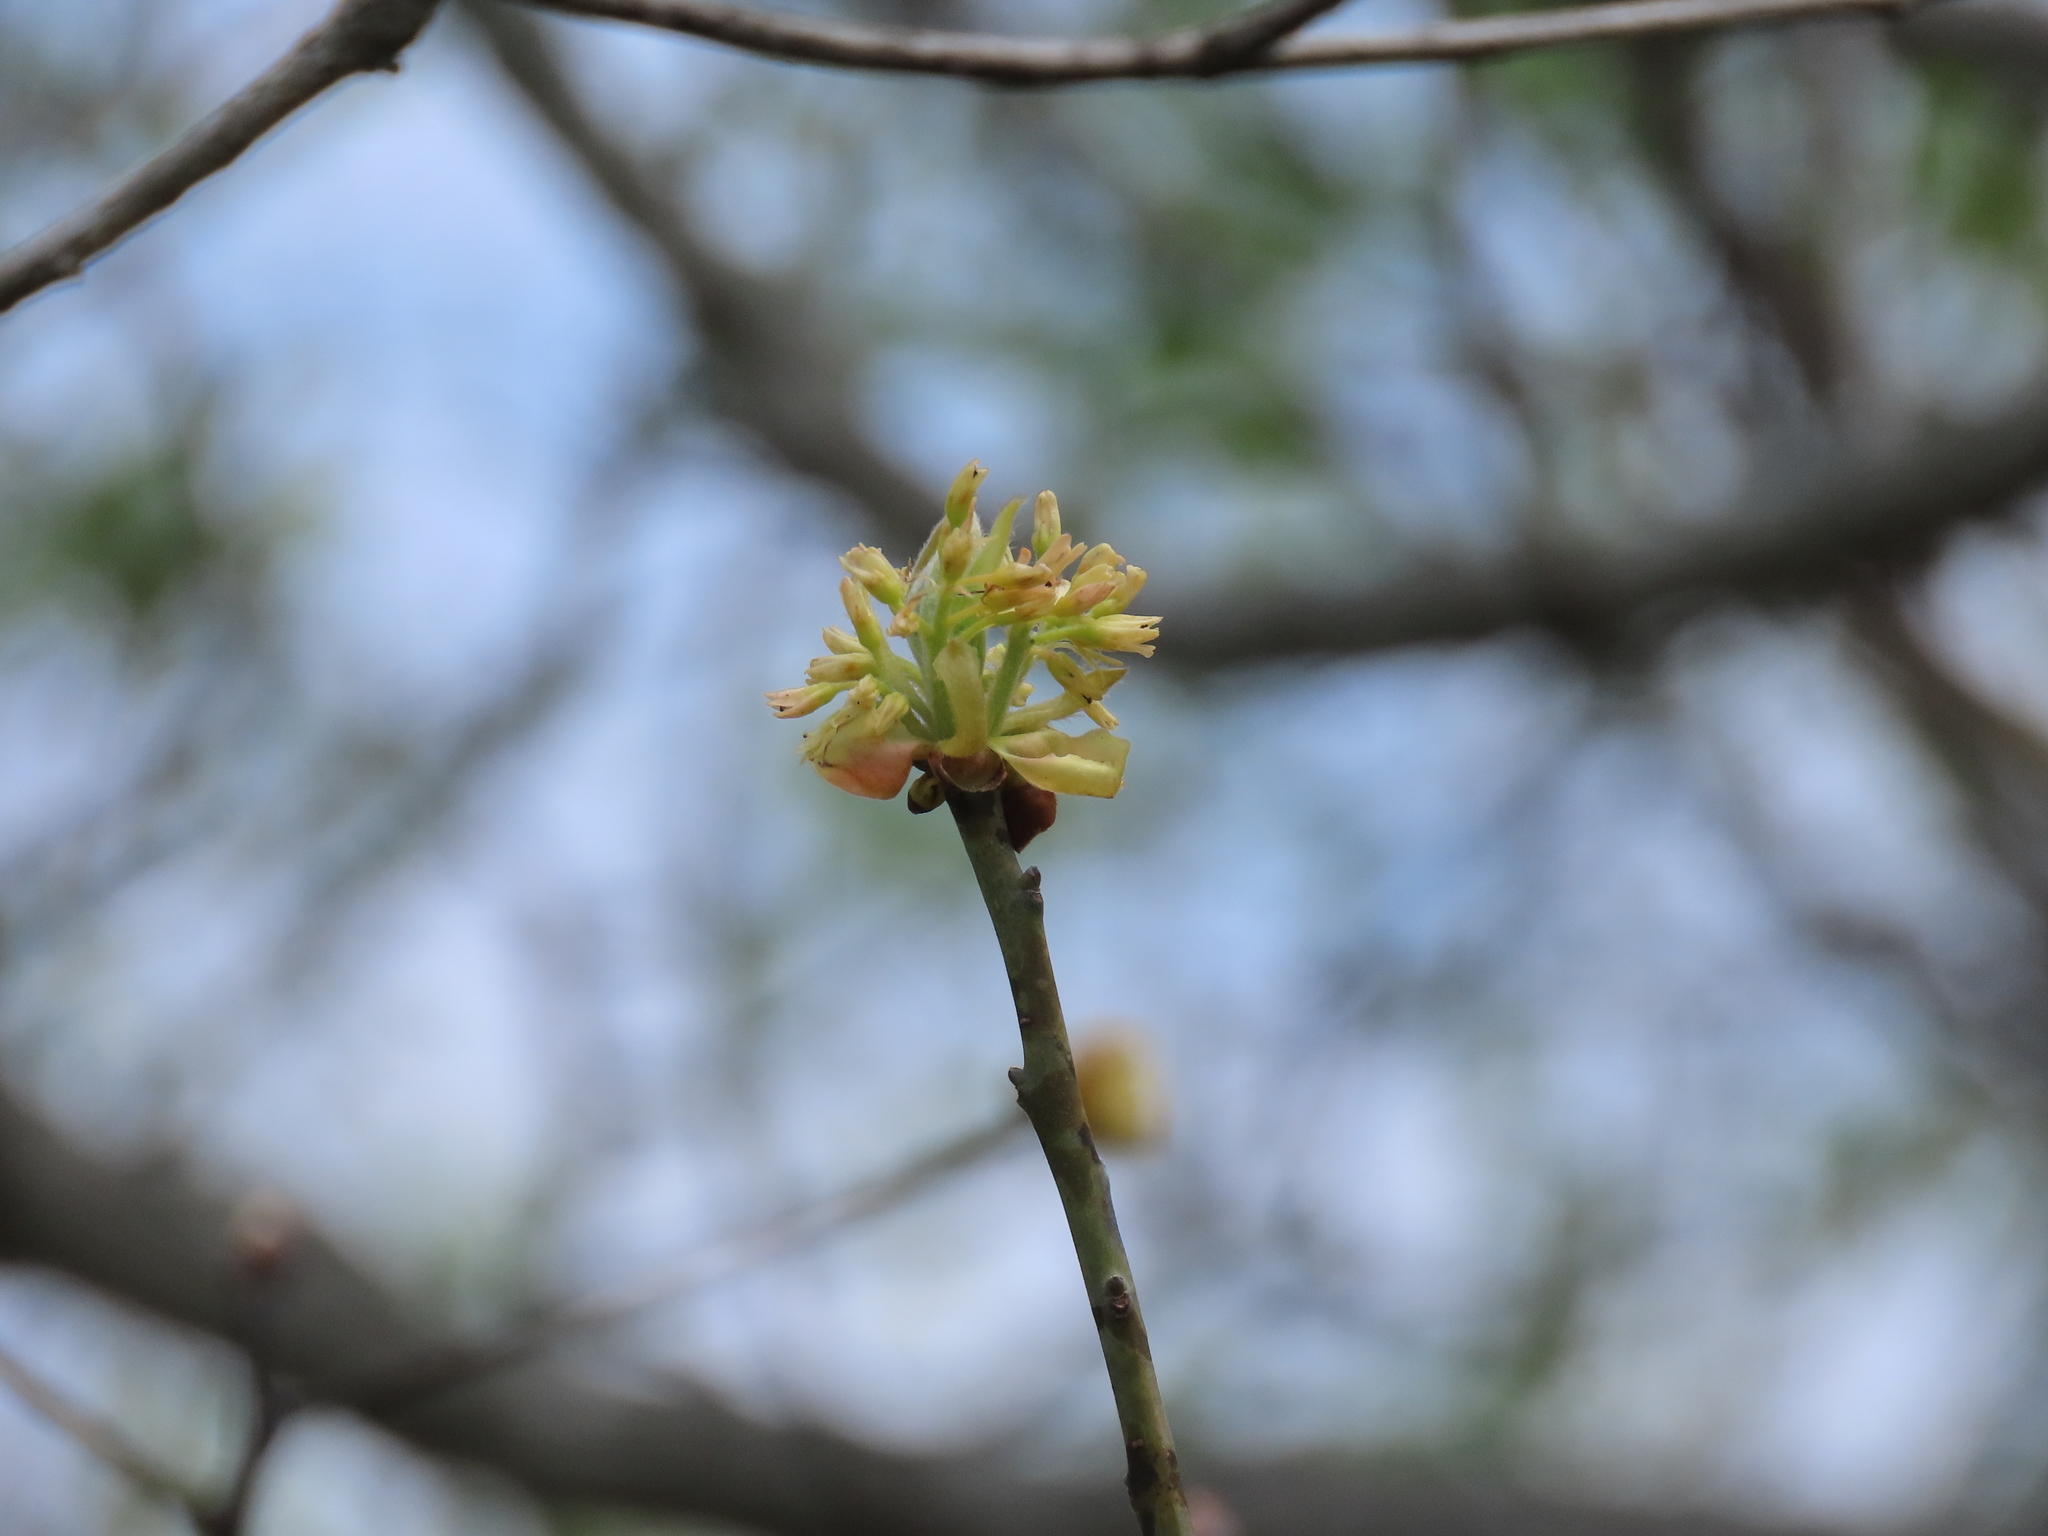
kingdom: Plantae
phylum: Tracheophyta
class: Magnoliopsida
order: Laurales
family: Lauraceae
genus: Sassafras
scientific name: Sassafras albidum
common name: Sassafras
